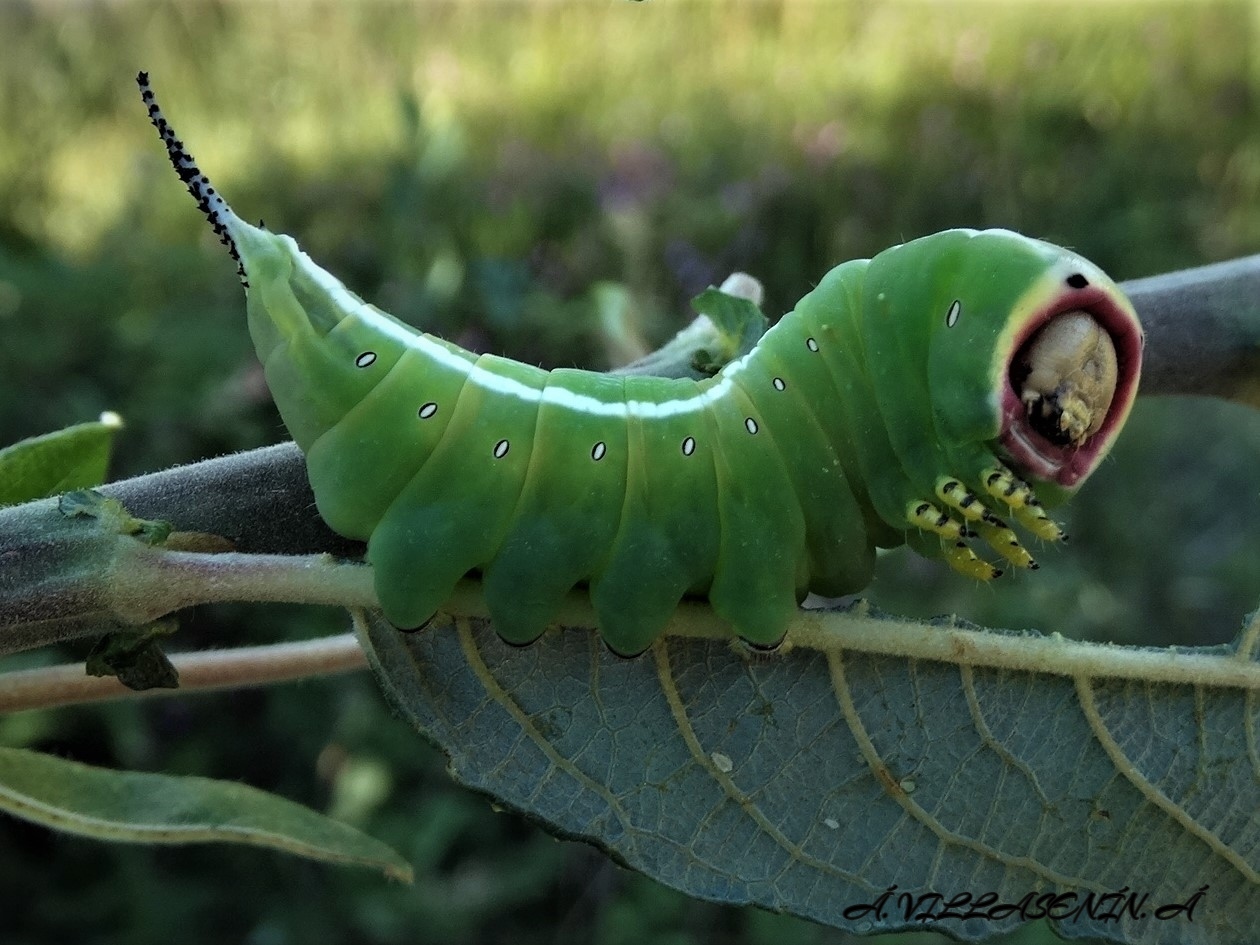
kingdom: Animalia
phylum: Arthropoda
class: Insecta
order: Lepidoptera
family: Notodontidae
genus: Cerura
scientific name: Cerura iberica
